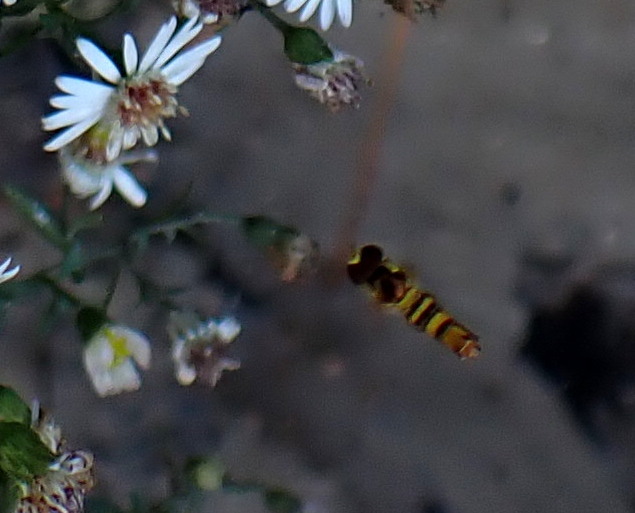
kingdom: Animalia
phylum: Arthropoda
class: Insecta
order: Diptera
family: Syrphidae
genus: Allograpta
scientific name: Allograpta obliqua
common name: Common oblique syrphid
